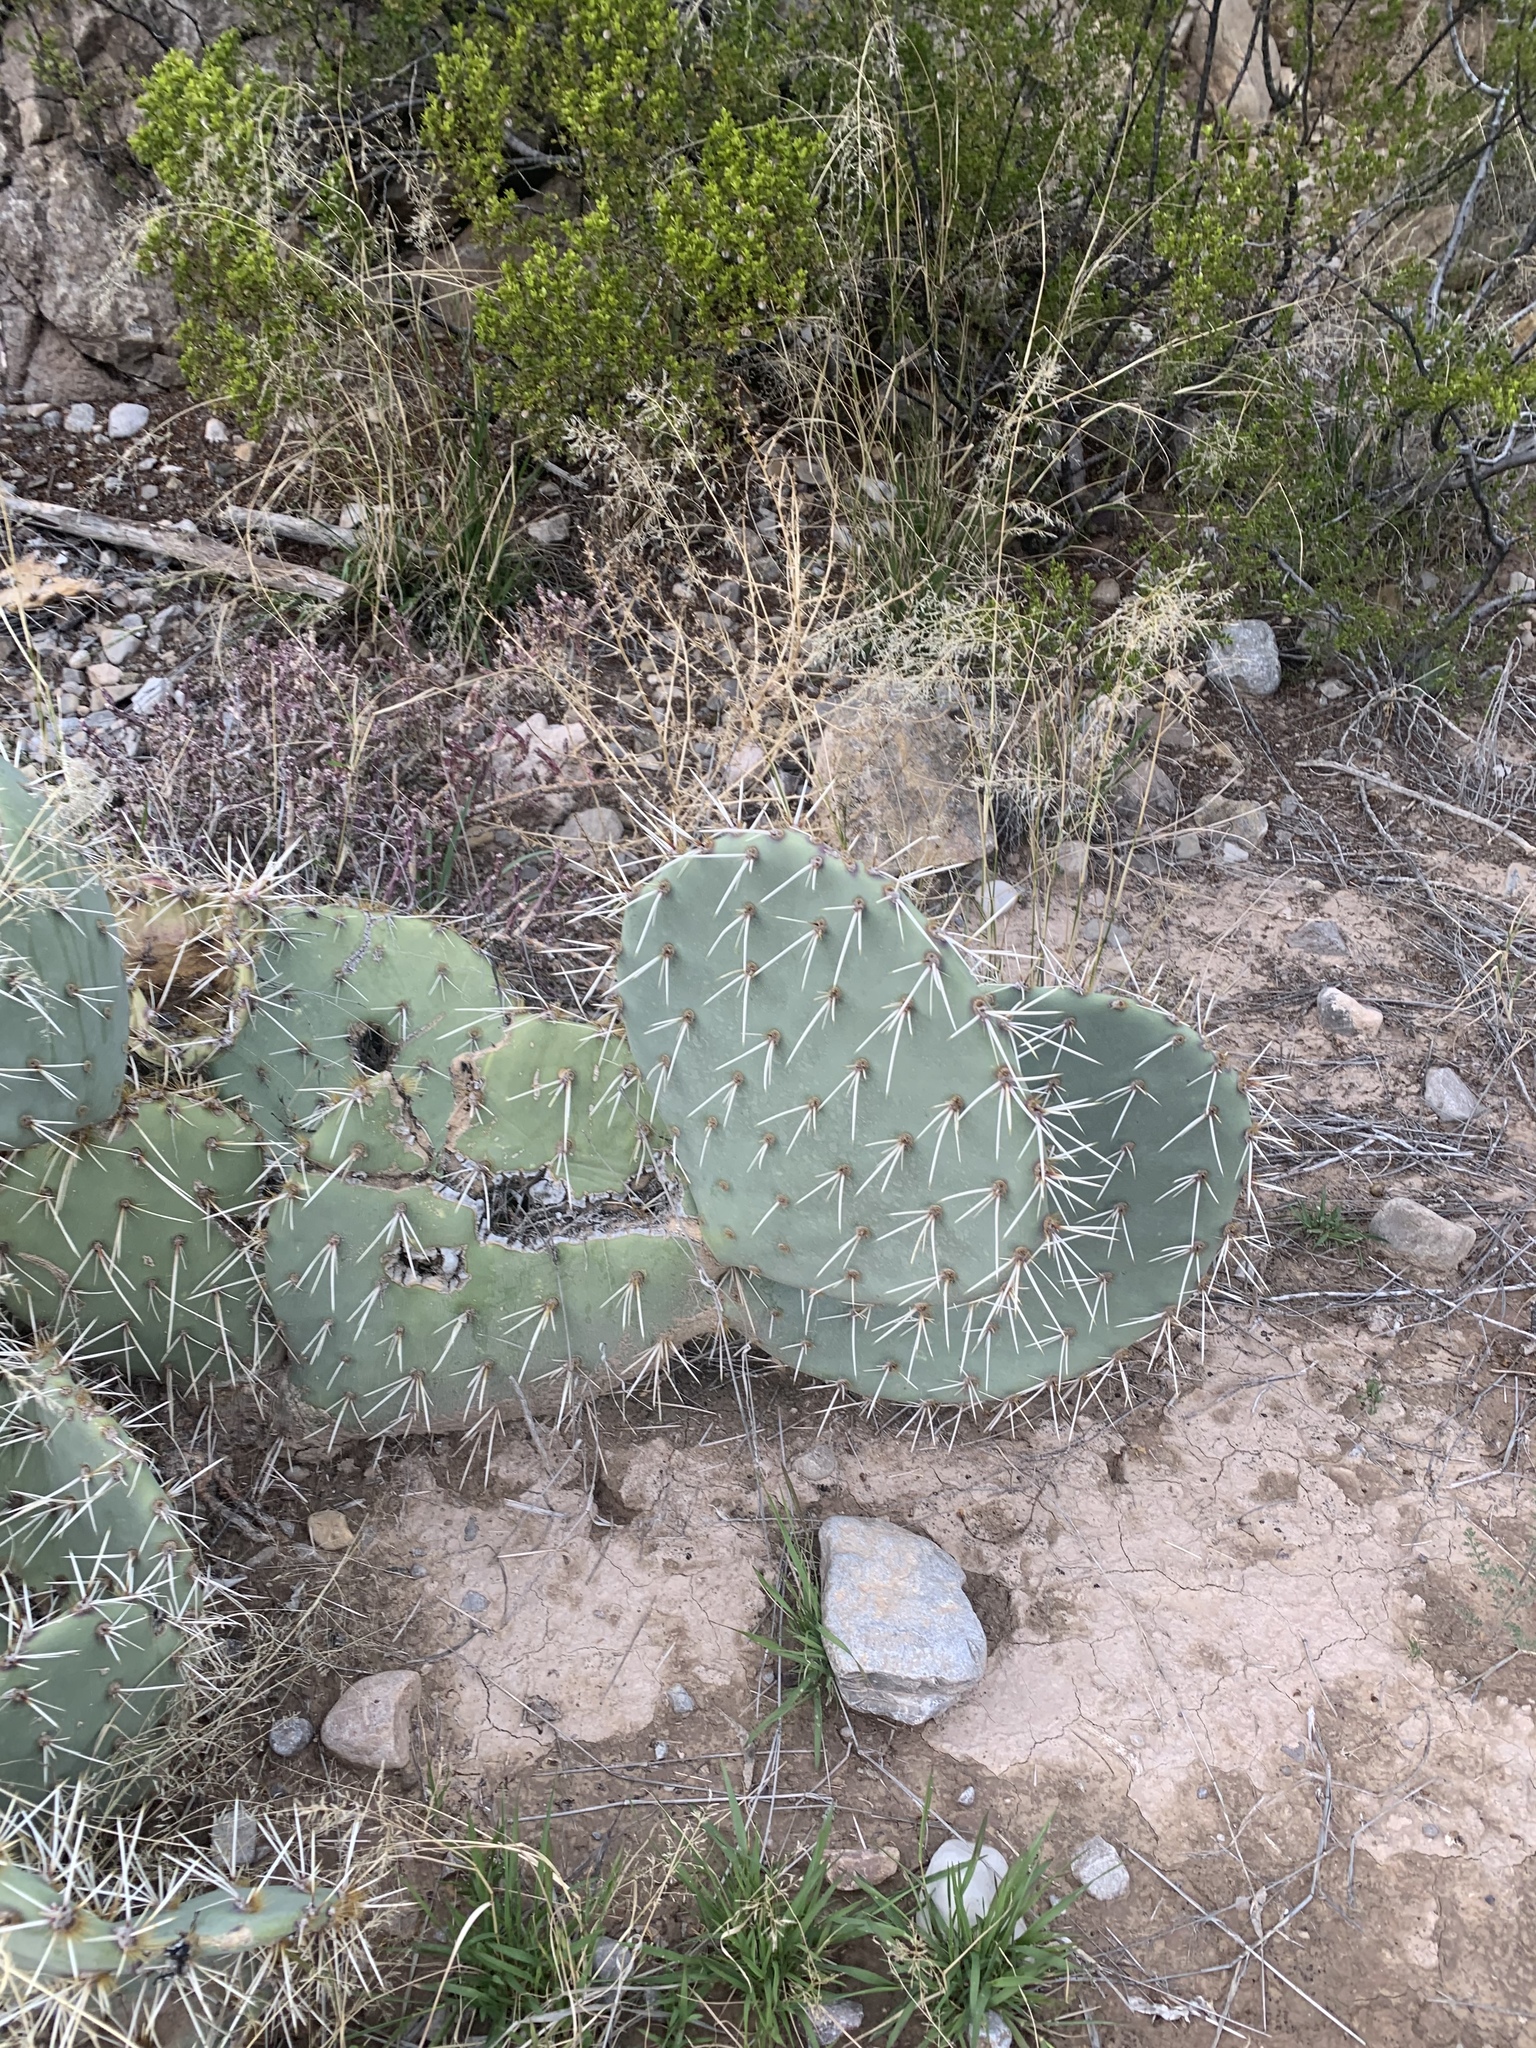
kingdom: Plantae
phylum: Tracheophyta
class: Magnoliopsida
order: Caryophyllales
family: Cactaceae
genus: Opuntia
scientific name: Opuntia phaeacantha
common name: New mexico prickly-pear
